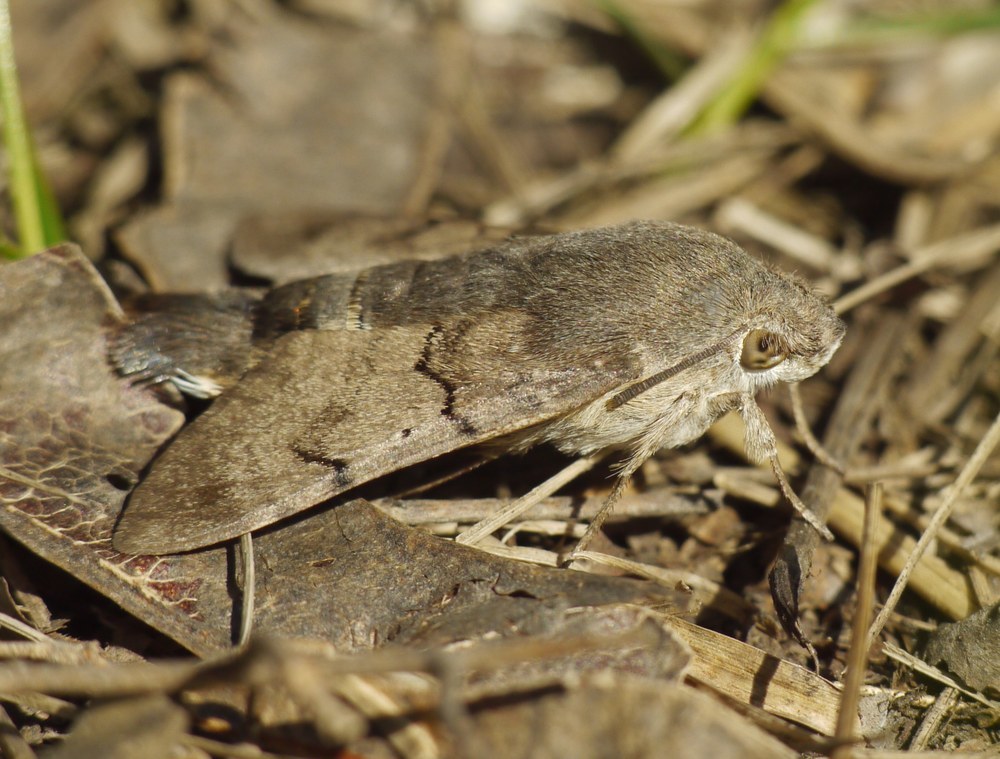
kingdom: Animalia
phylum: Arthropoda
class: Insecta
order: Lepidoptera
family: Sphingidae
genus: Macroglossum
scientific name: Macroglossum stellatarum
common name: Humming-bird hawk-moth
